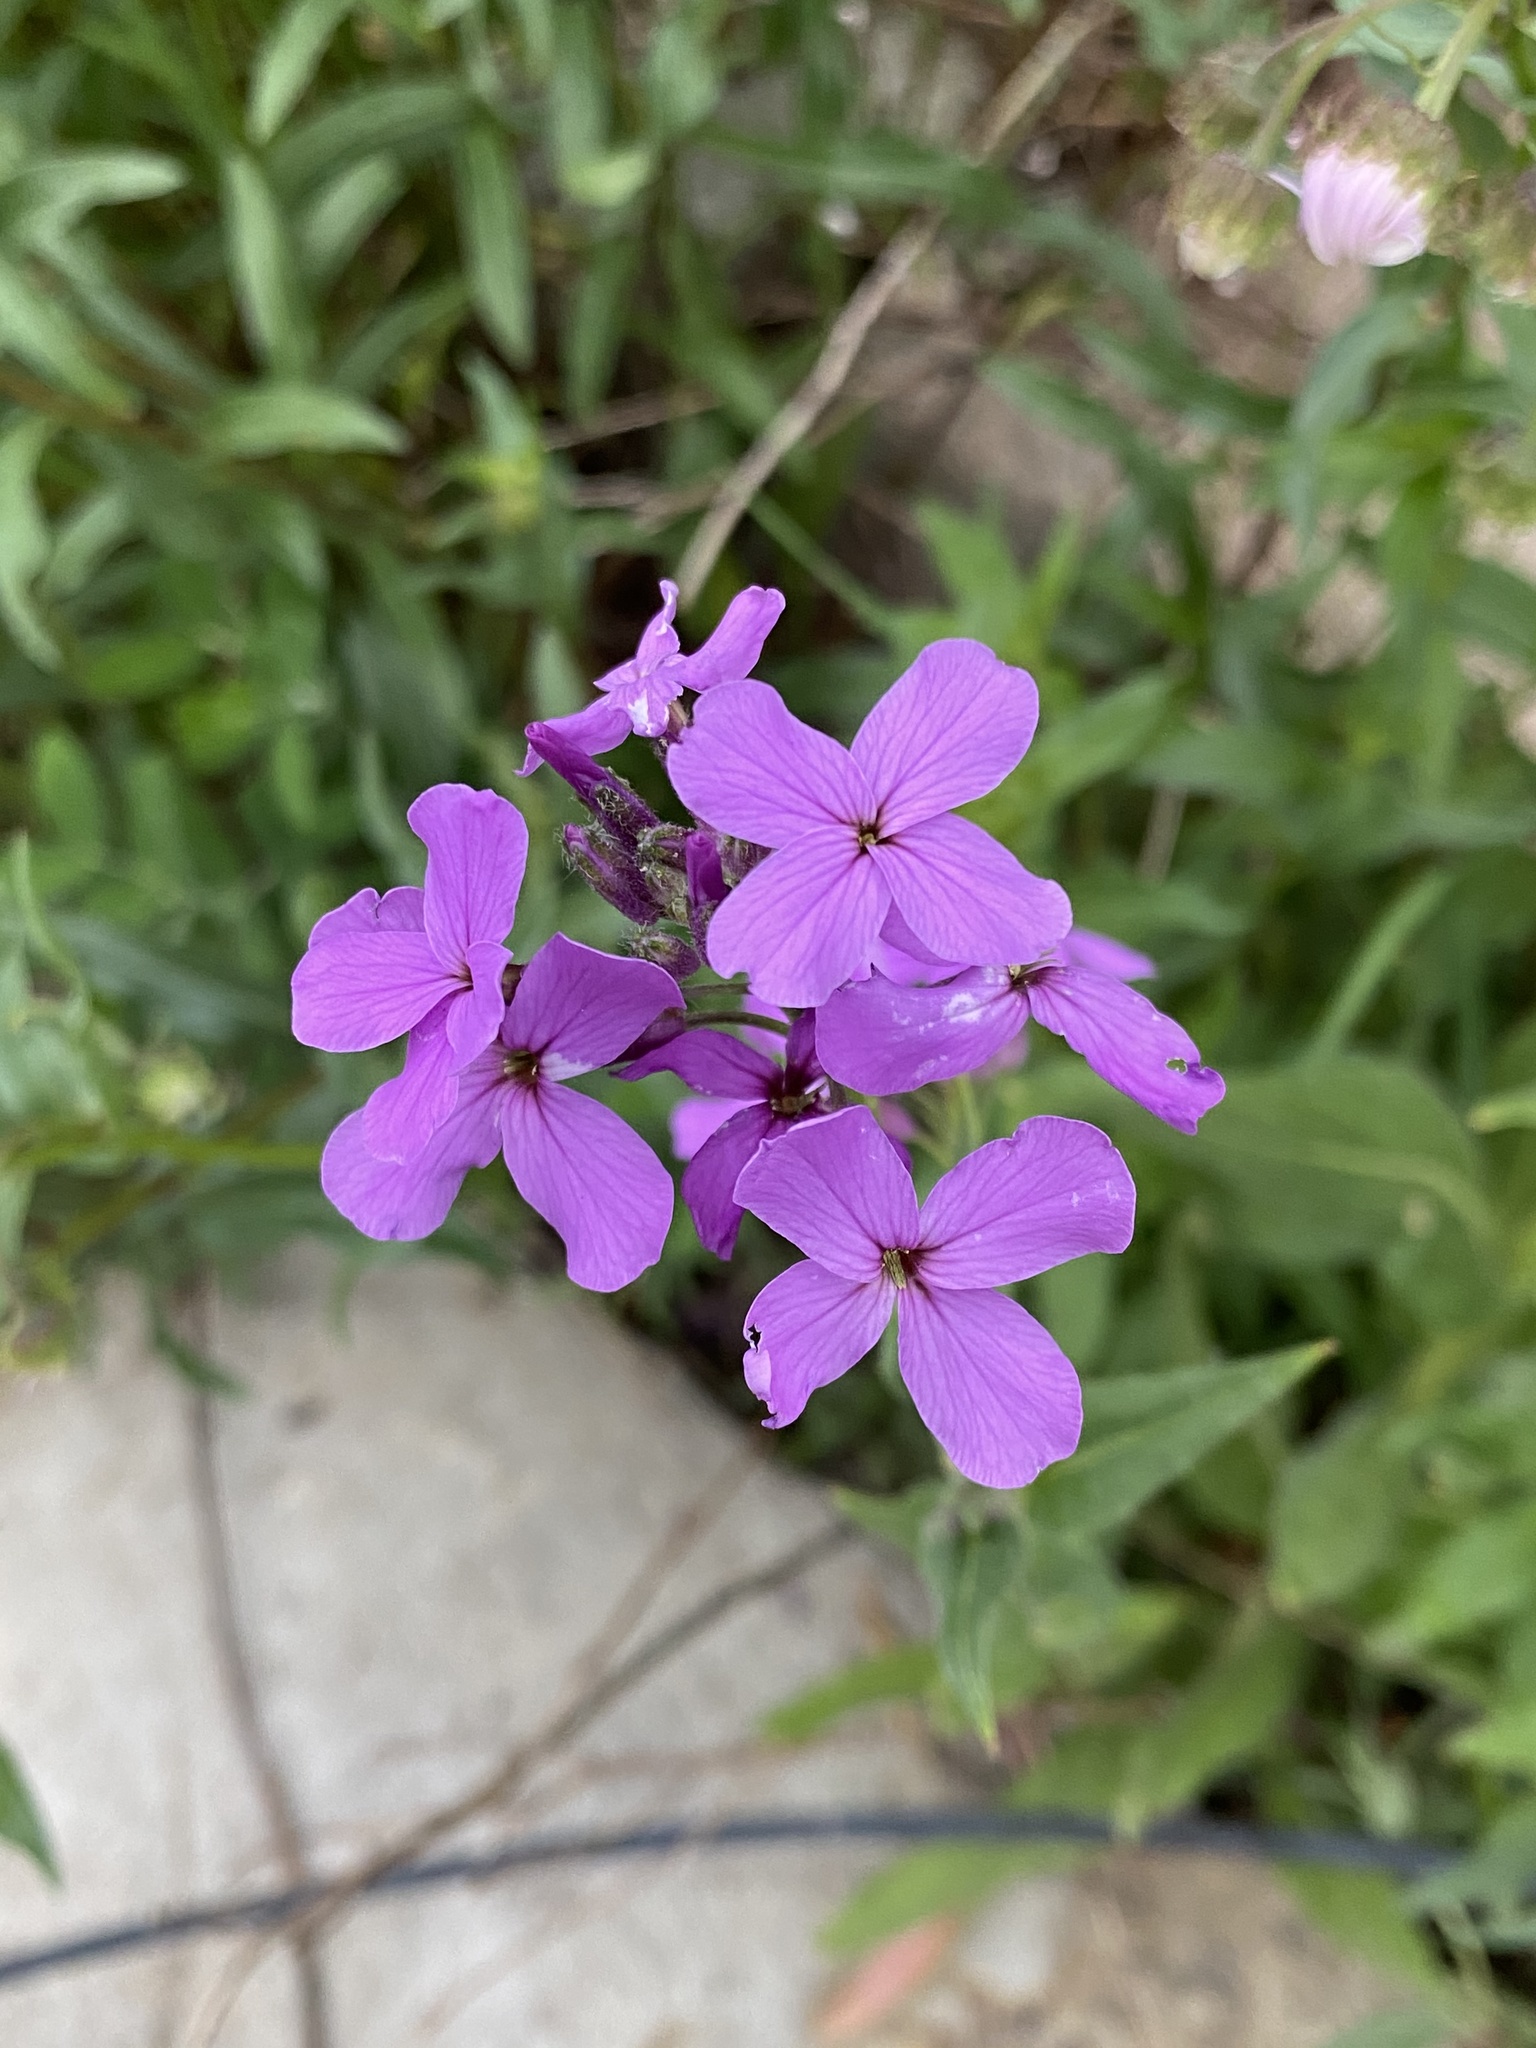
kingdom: Plantae
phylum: Tracheophyta
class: Magnoliopsida
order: Brassicales
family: Brassicaceae
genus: Hesperis
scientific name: Hesperis matronalis
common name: Dame's-violet
